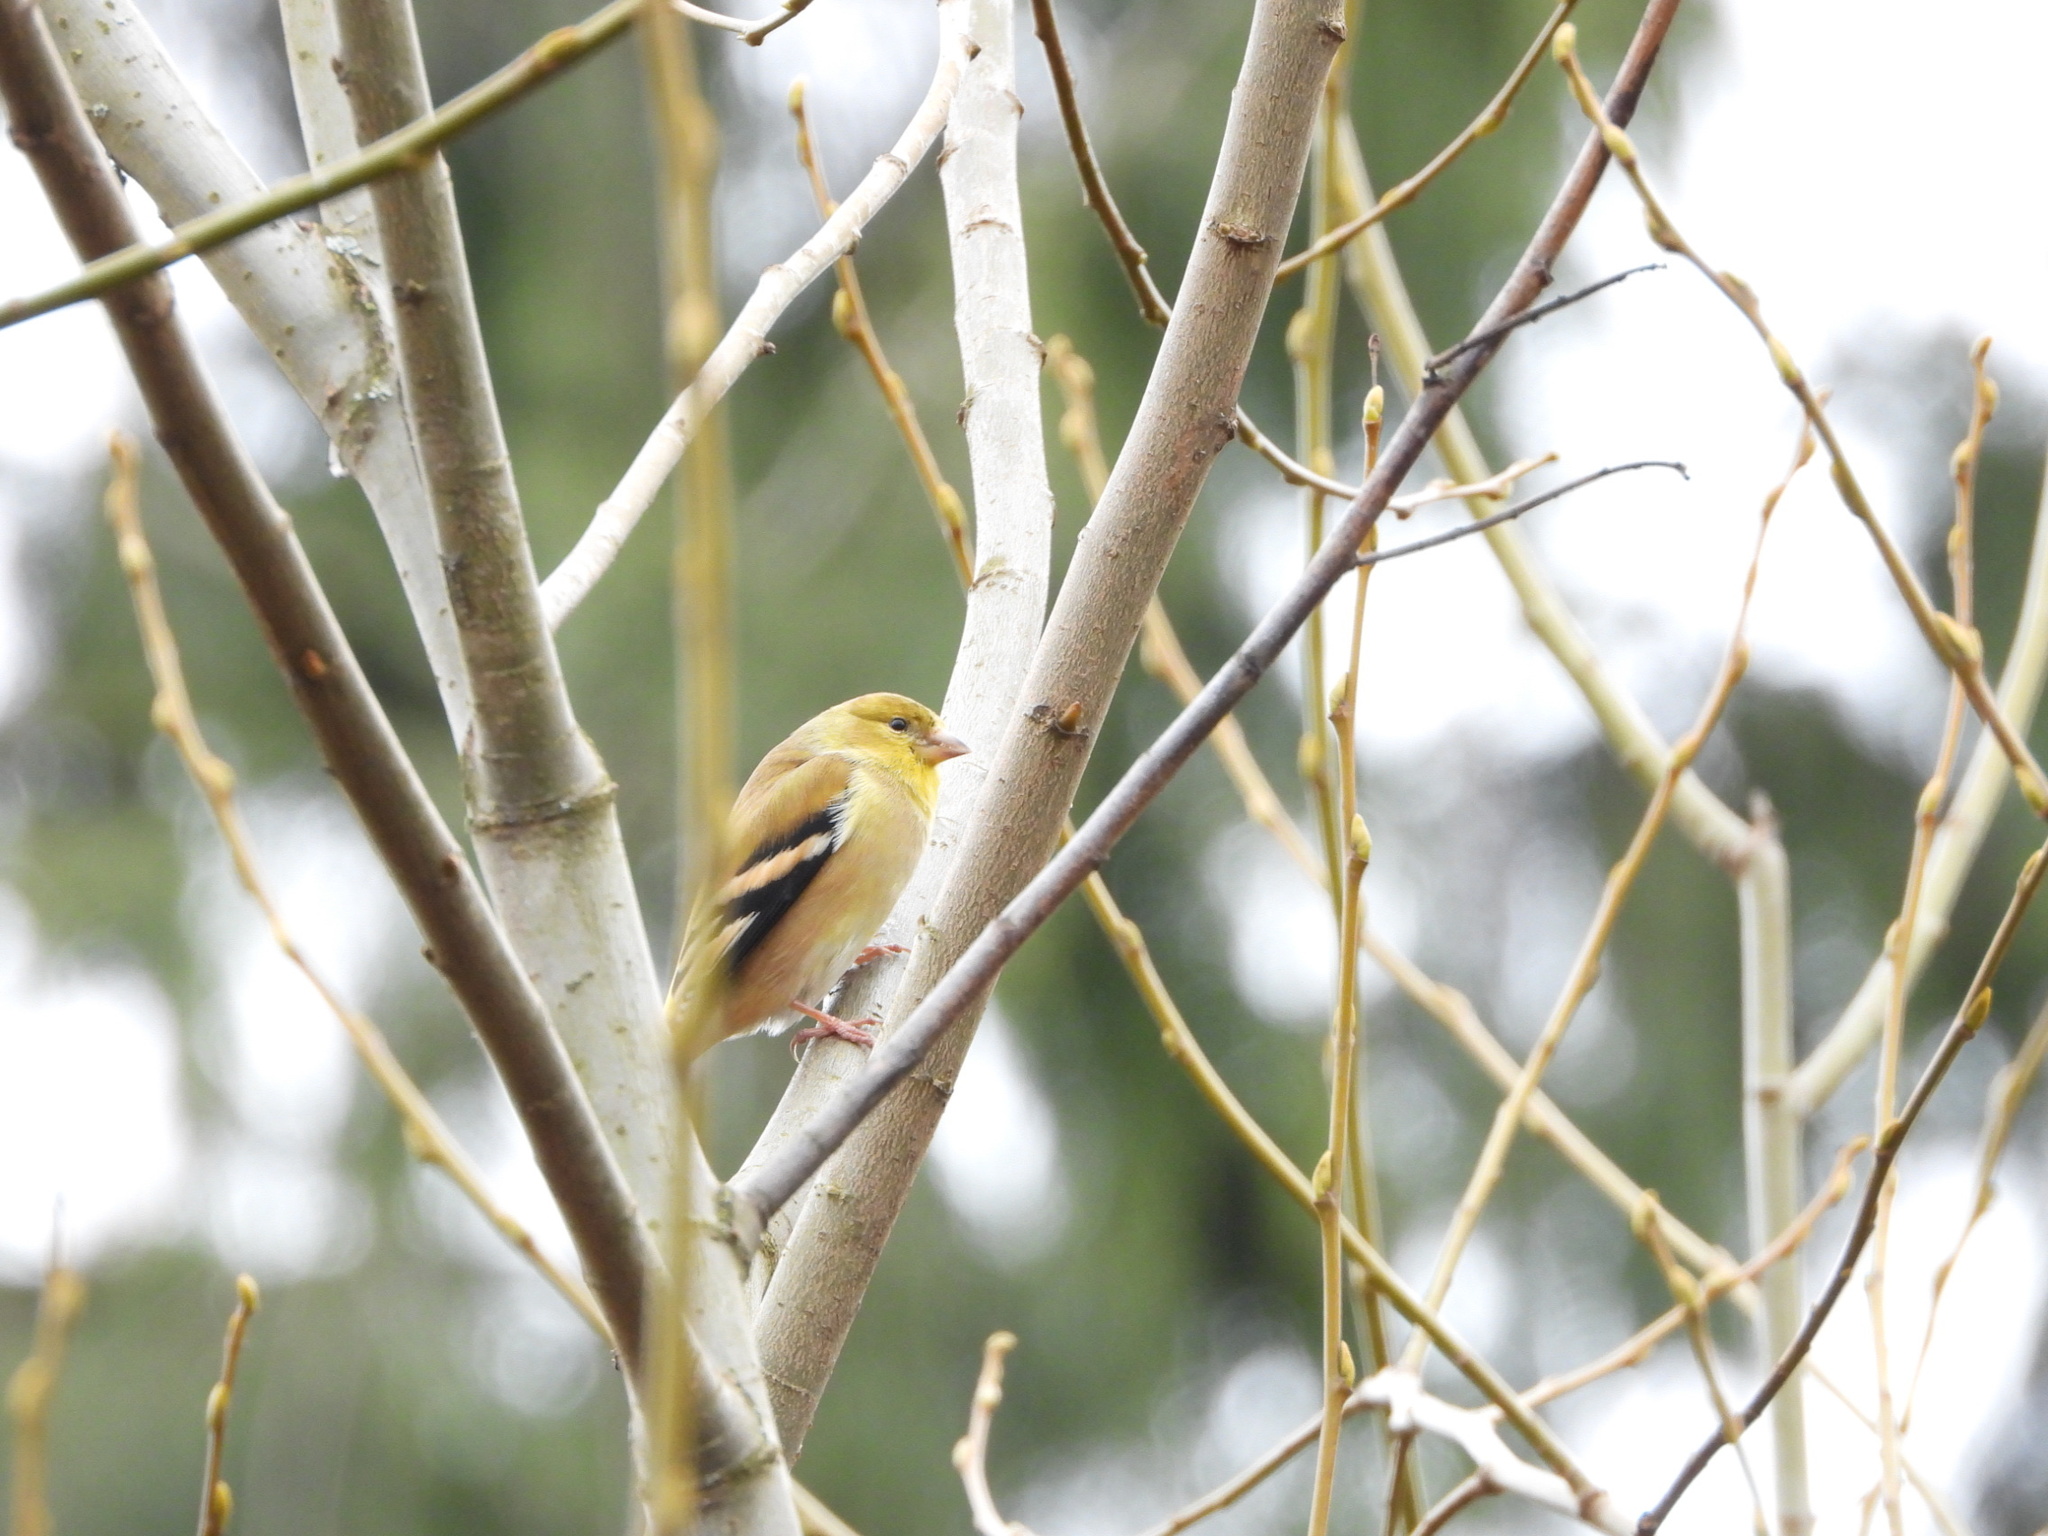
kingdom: Animalia
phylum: Chordata
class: Aves
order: Passeriformes
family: Fringillidae
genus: Spinus
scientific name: Spinus tristis
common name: American goldfinch
